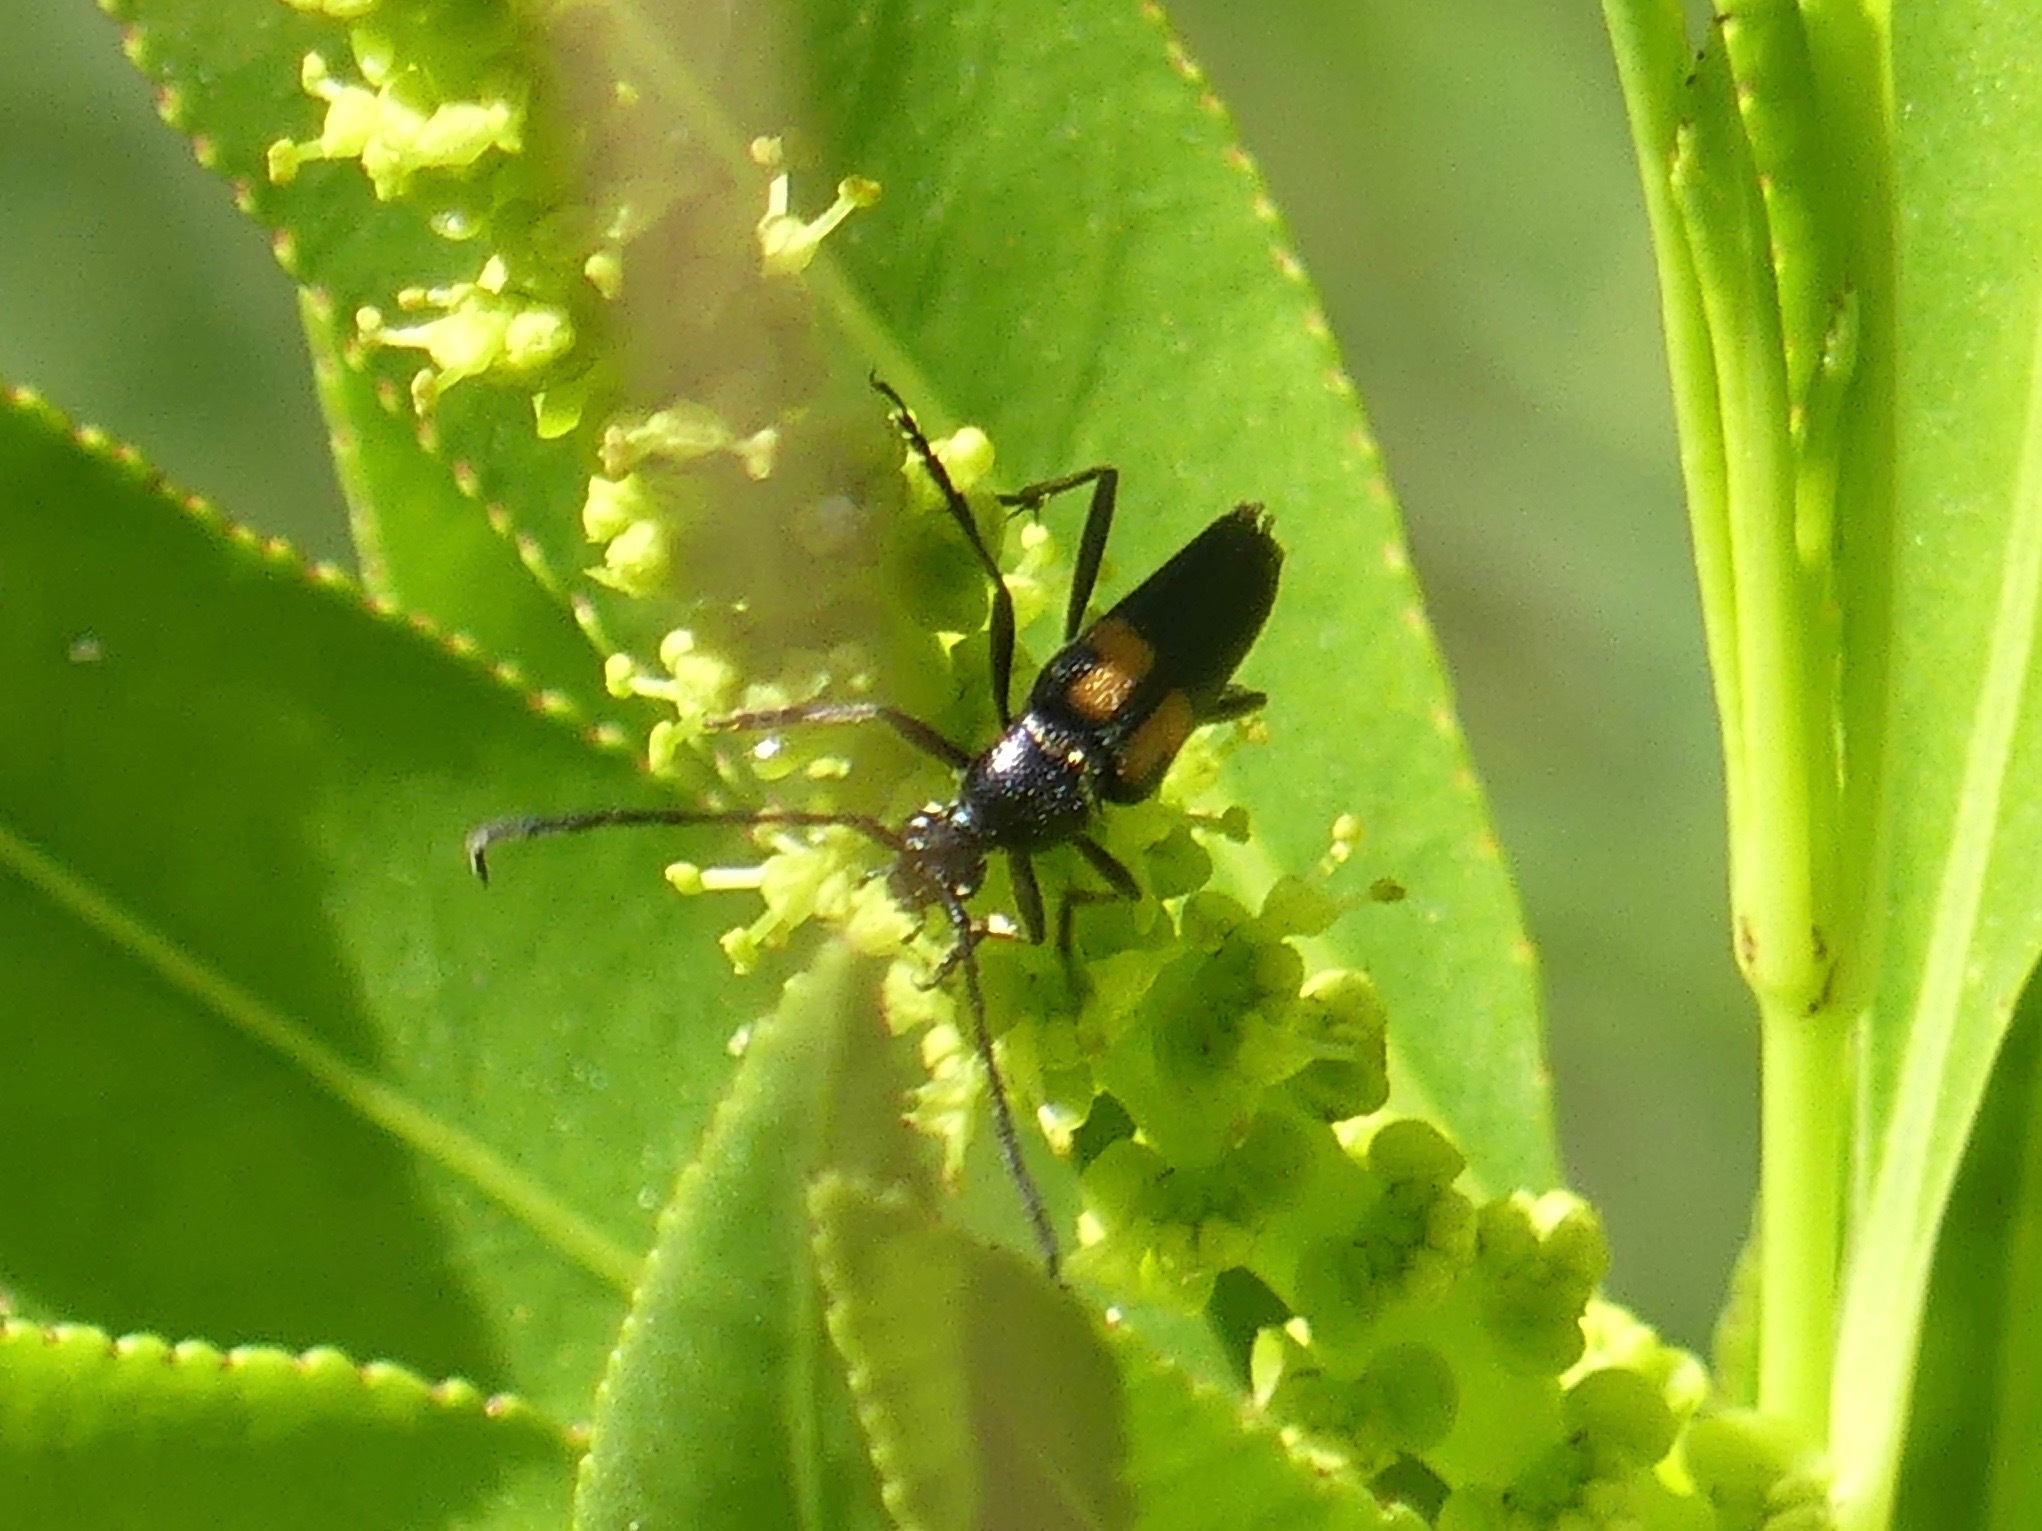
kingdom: Animalia
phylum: Arthropoda
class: Insecta
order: Coleoptera
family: Cerambycidae
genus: Typocerus
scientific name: Typocerus lunulatus
